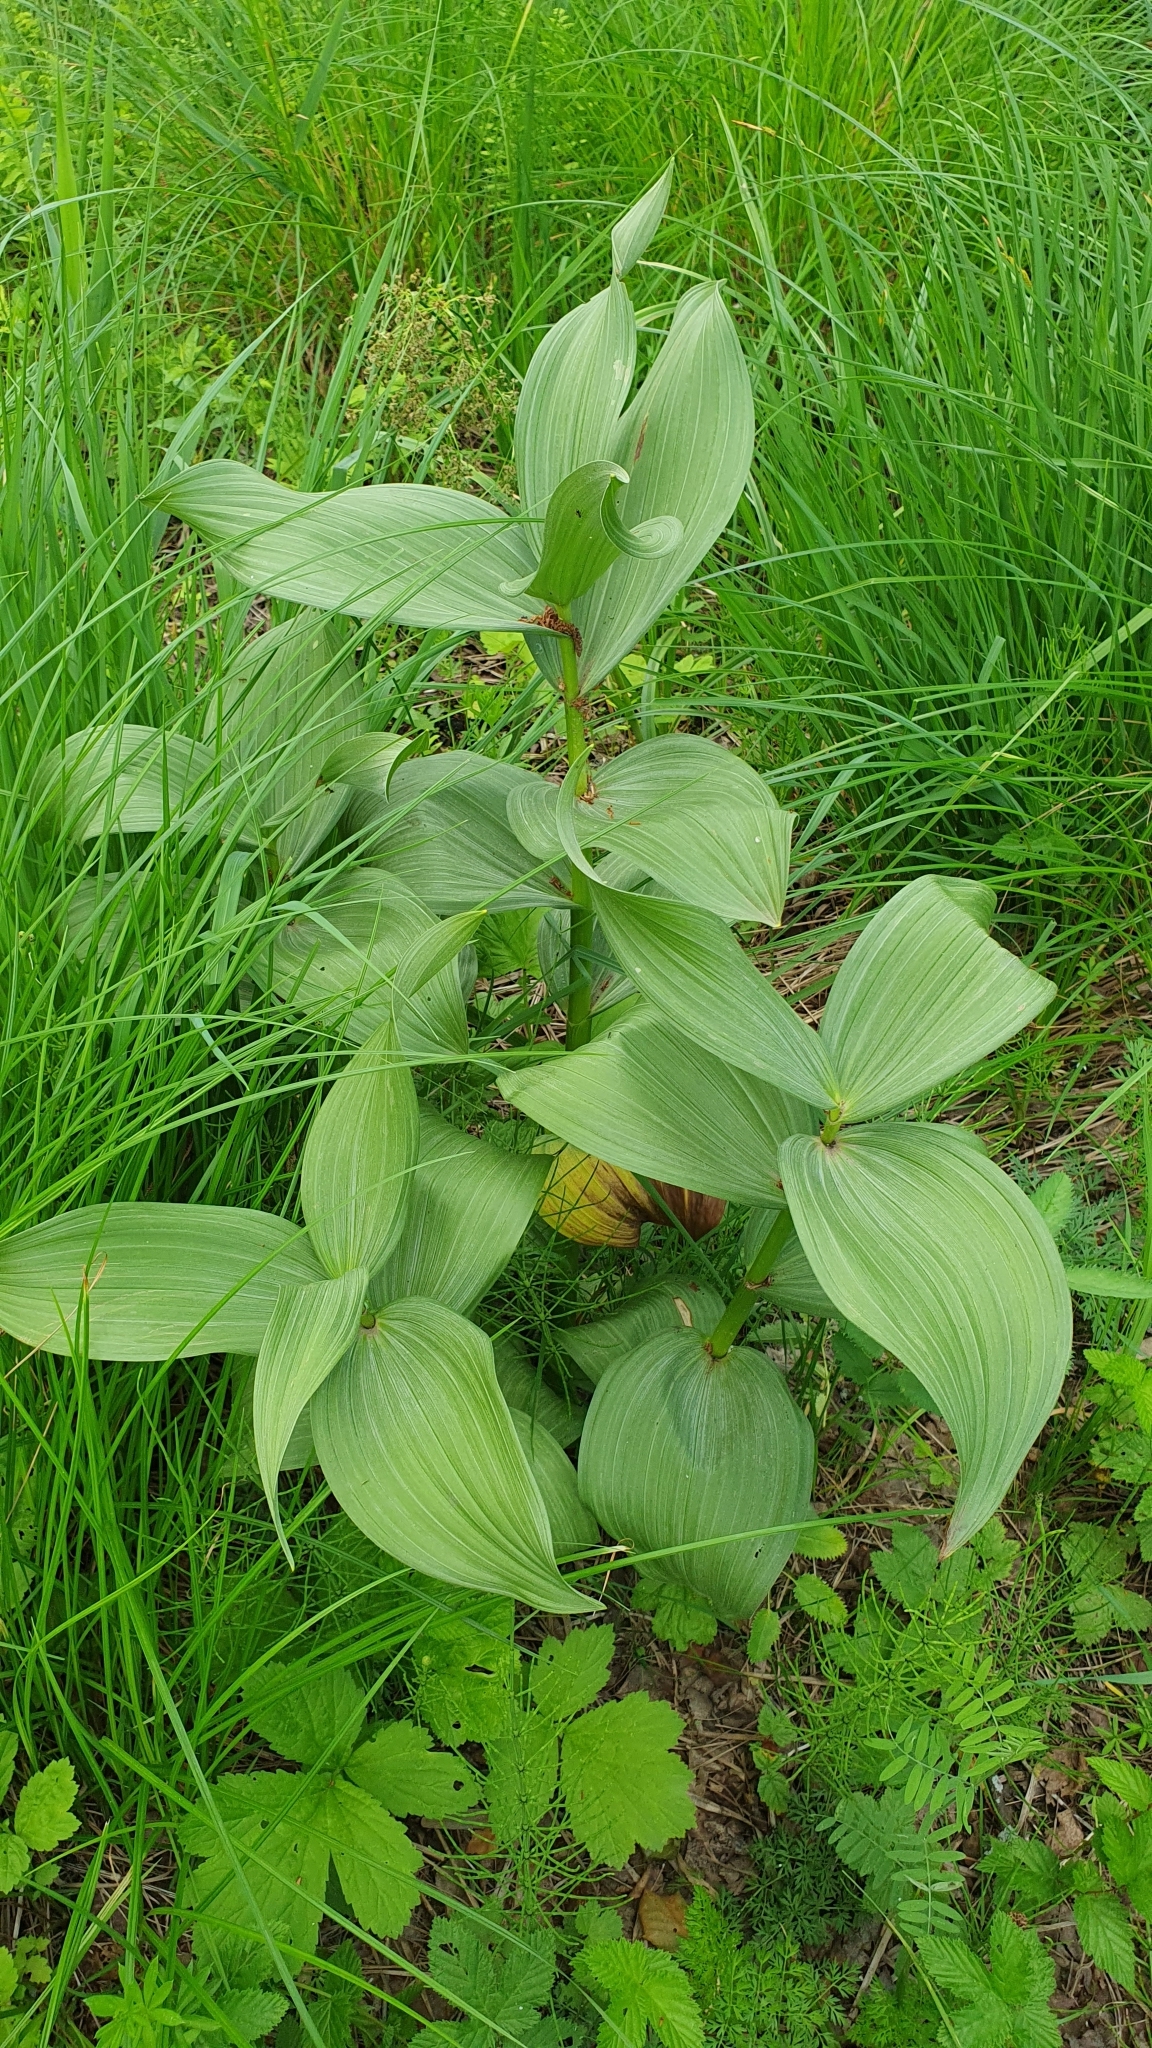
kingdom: Plantae
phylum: Tracheophyta
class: Liliopsida
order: Liliales
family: Melanthiaceae
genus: Veratrum
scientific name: Veratrum lobelianum
